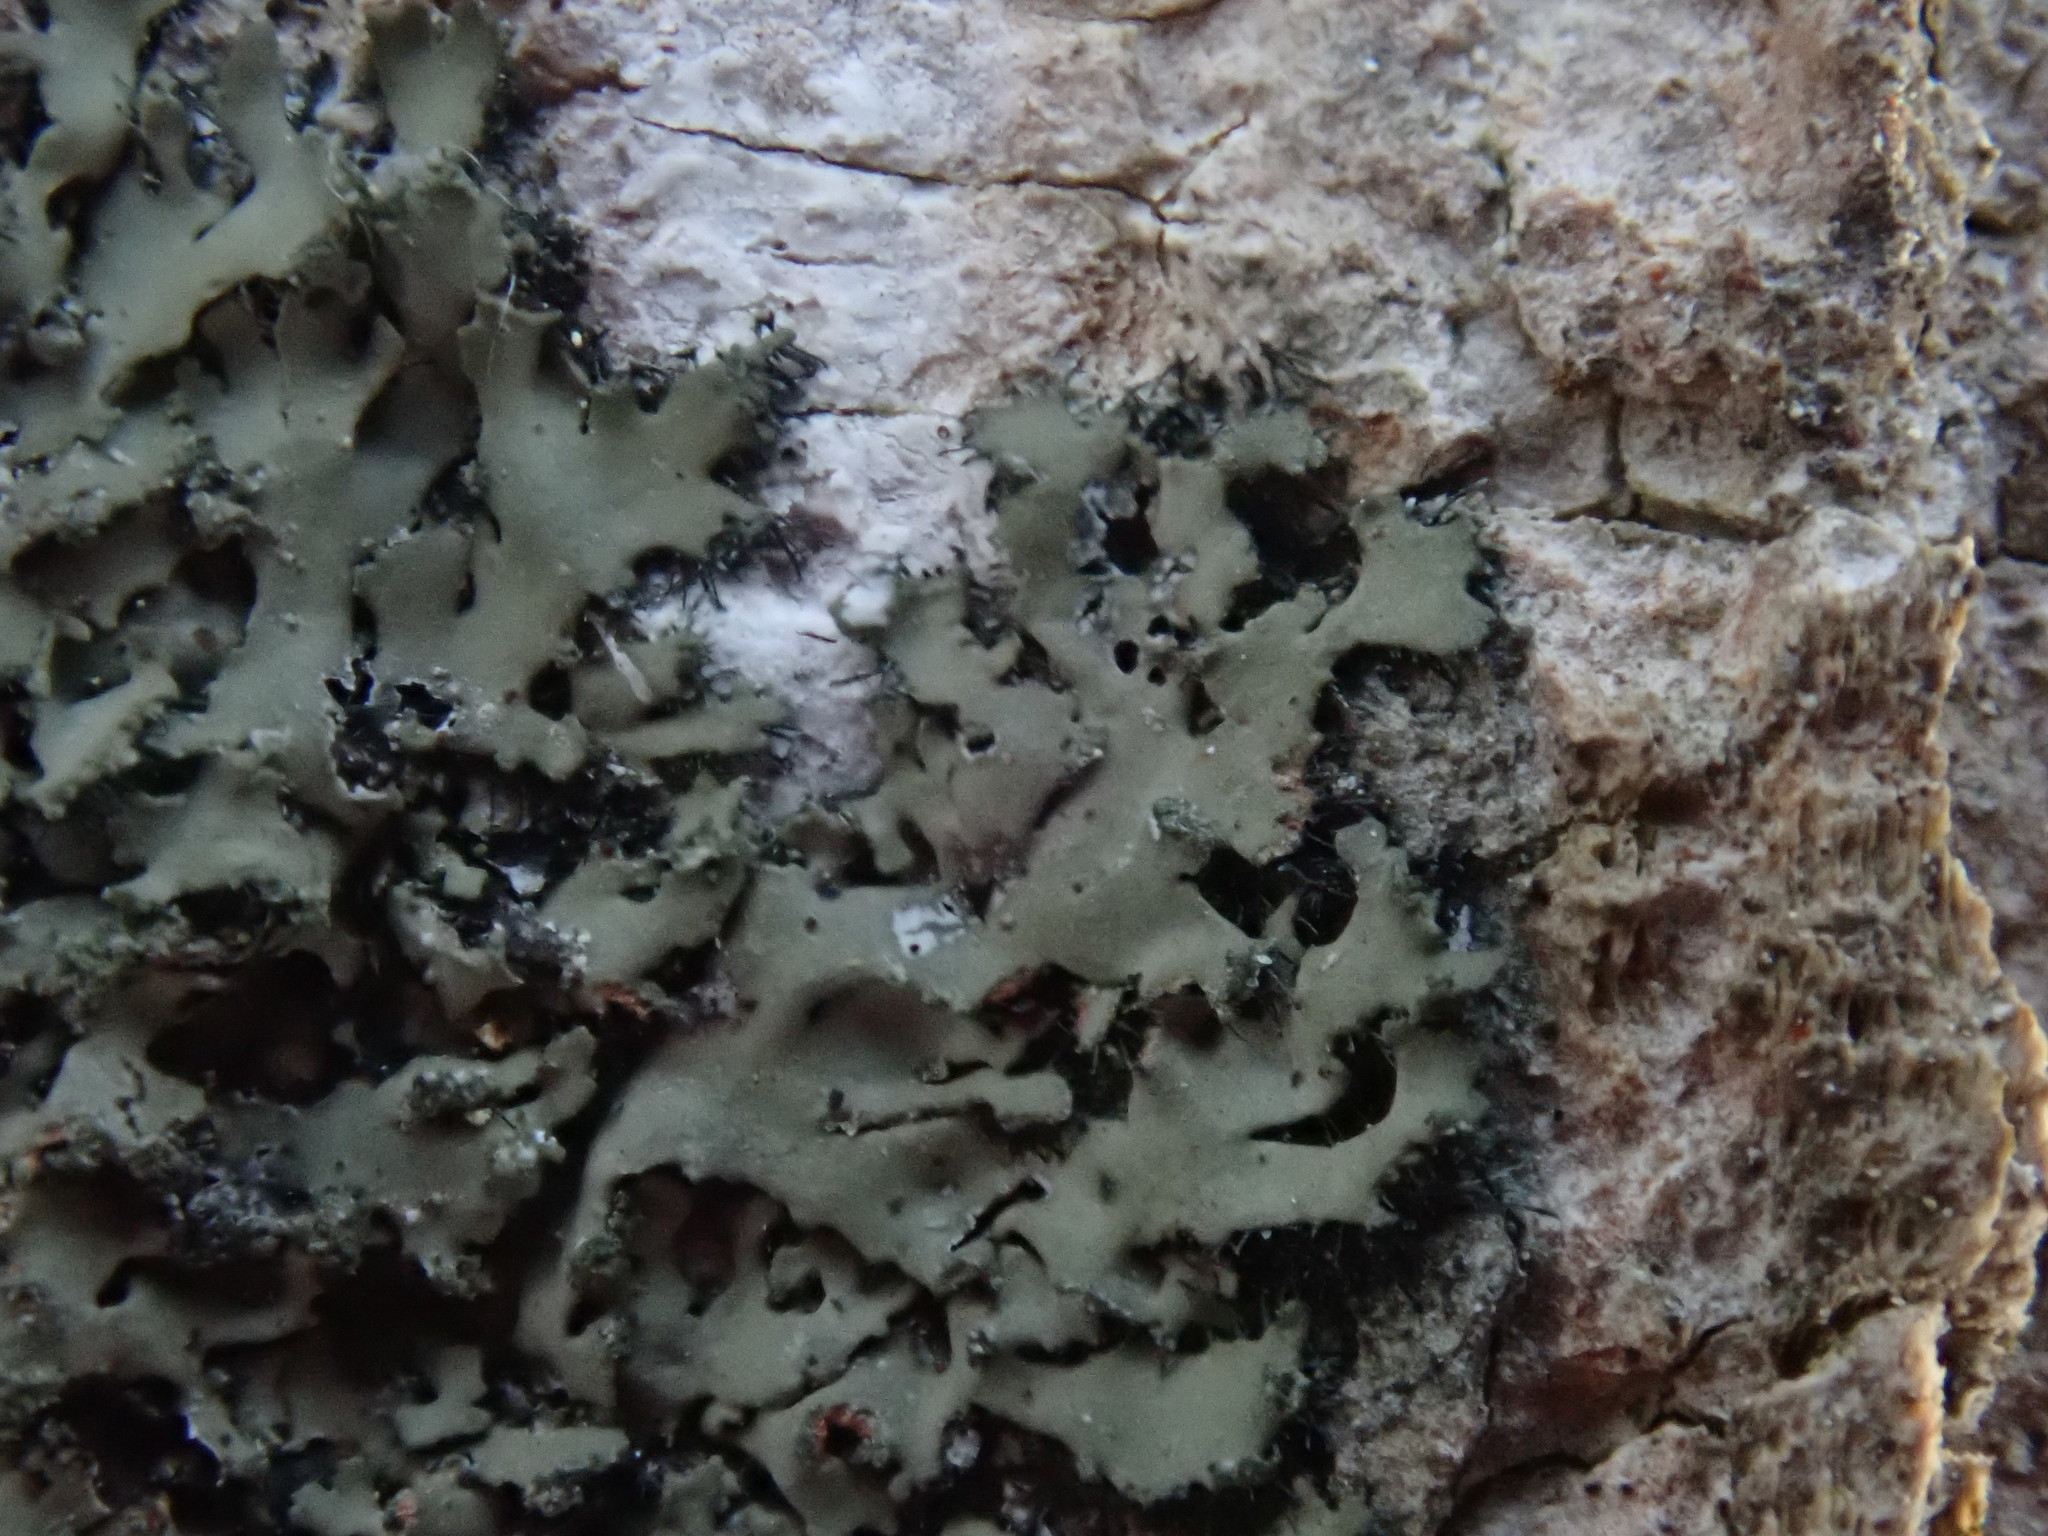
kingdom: Fungi
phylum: Ascomycota
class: Lecanoromycetes
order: Lecanorales
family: Parmeliaceae
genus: Parmelia
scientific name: Parmelia squarrosa
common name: Bottle brush shield lichen
